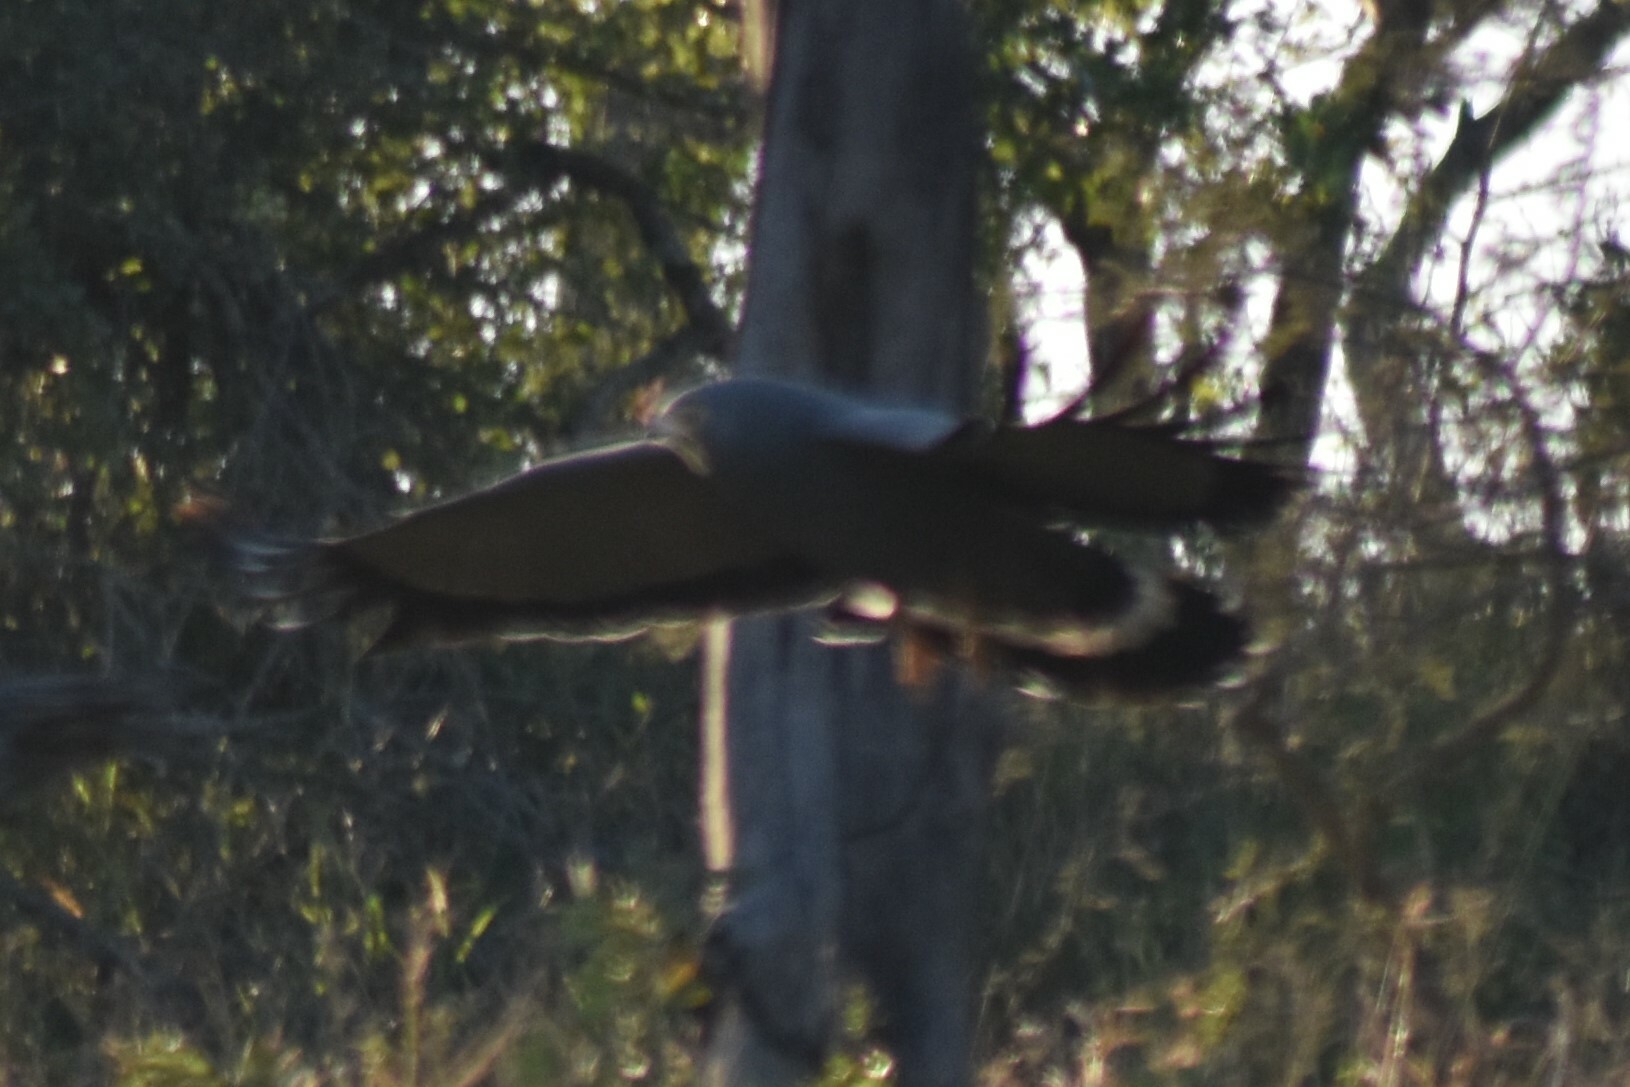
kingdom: Animalia
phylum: Chordata
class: Aves
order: Accipitriformes
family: Accipitridae
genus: Polyboroides
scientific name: Polyboroides typus
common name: African harrier-hawk
